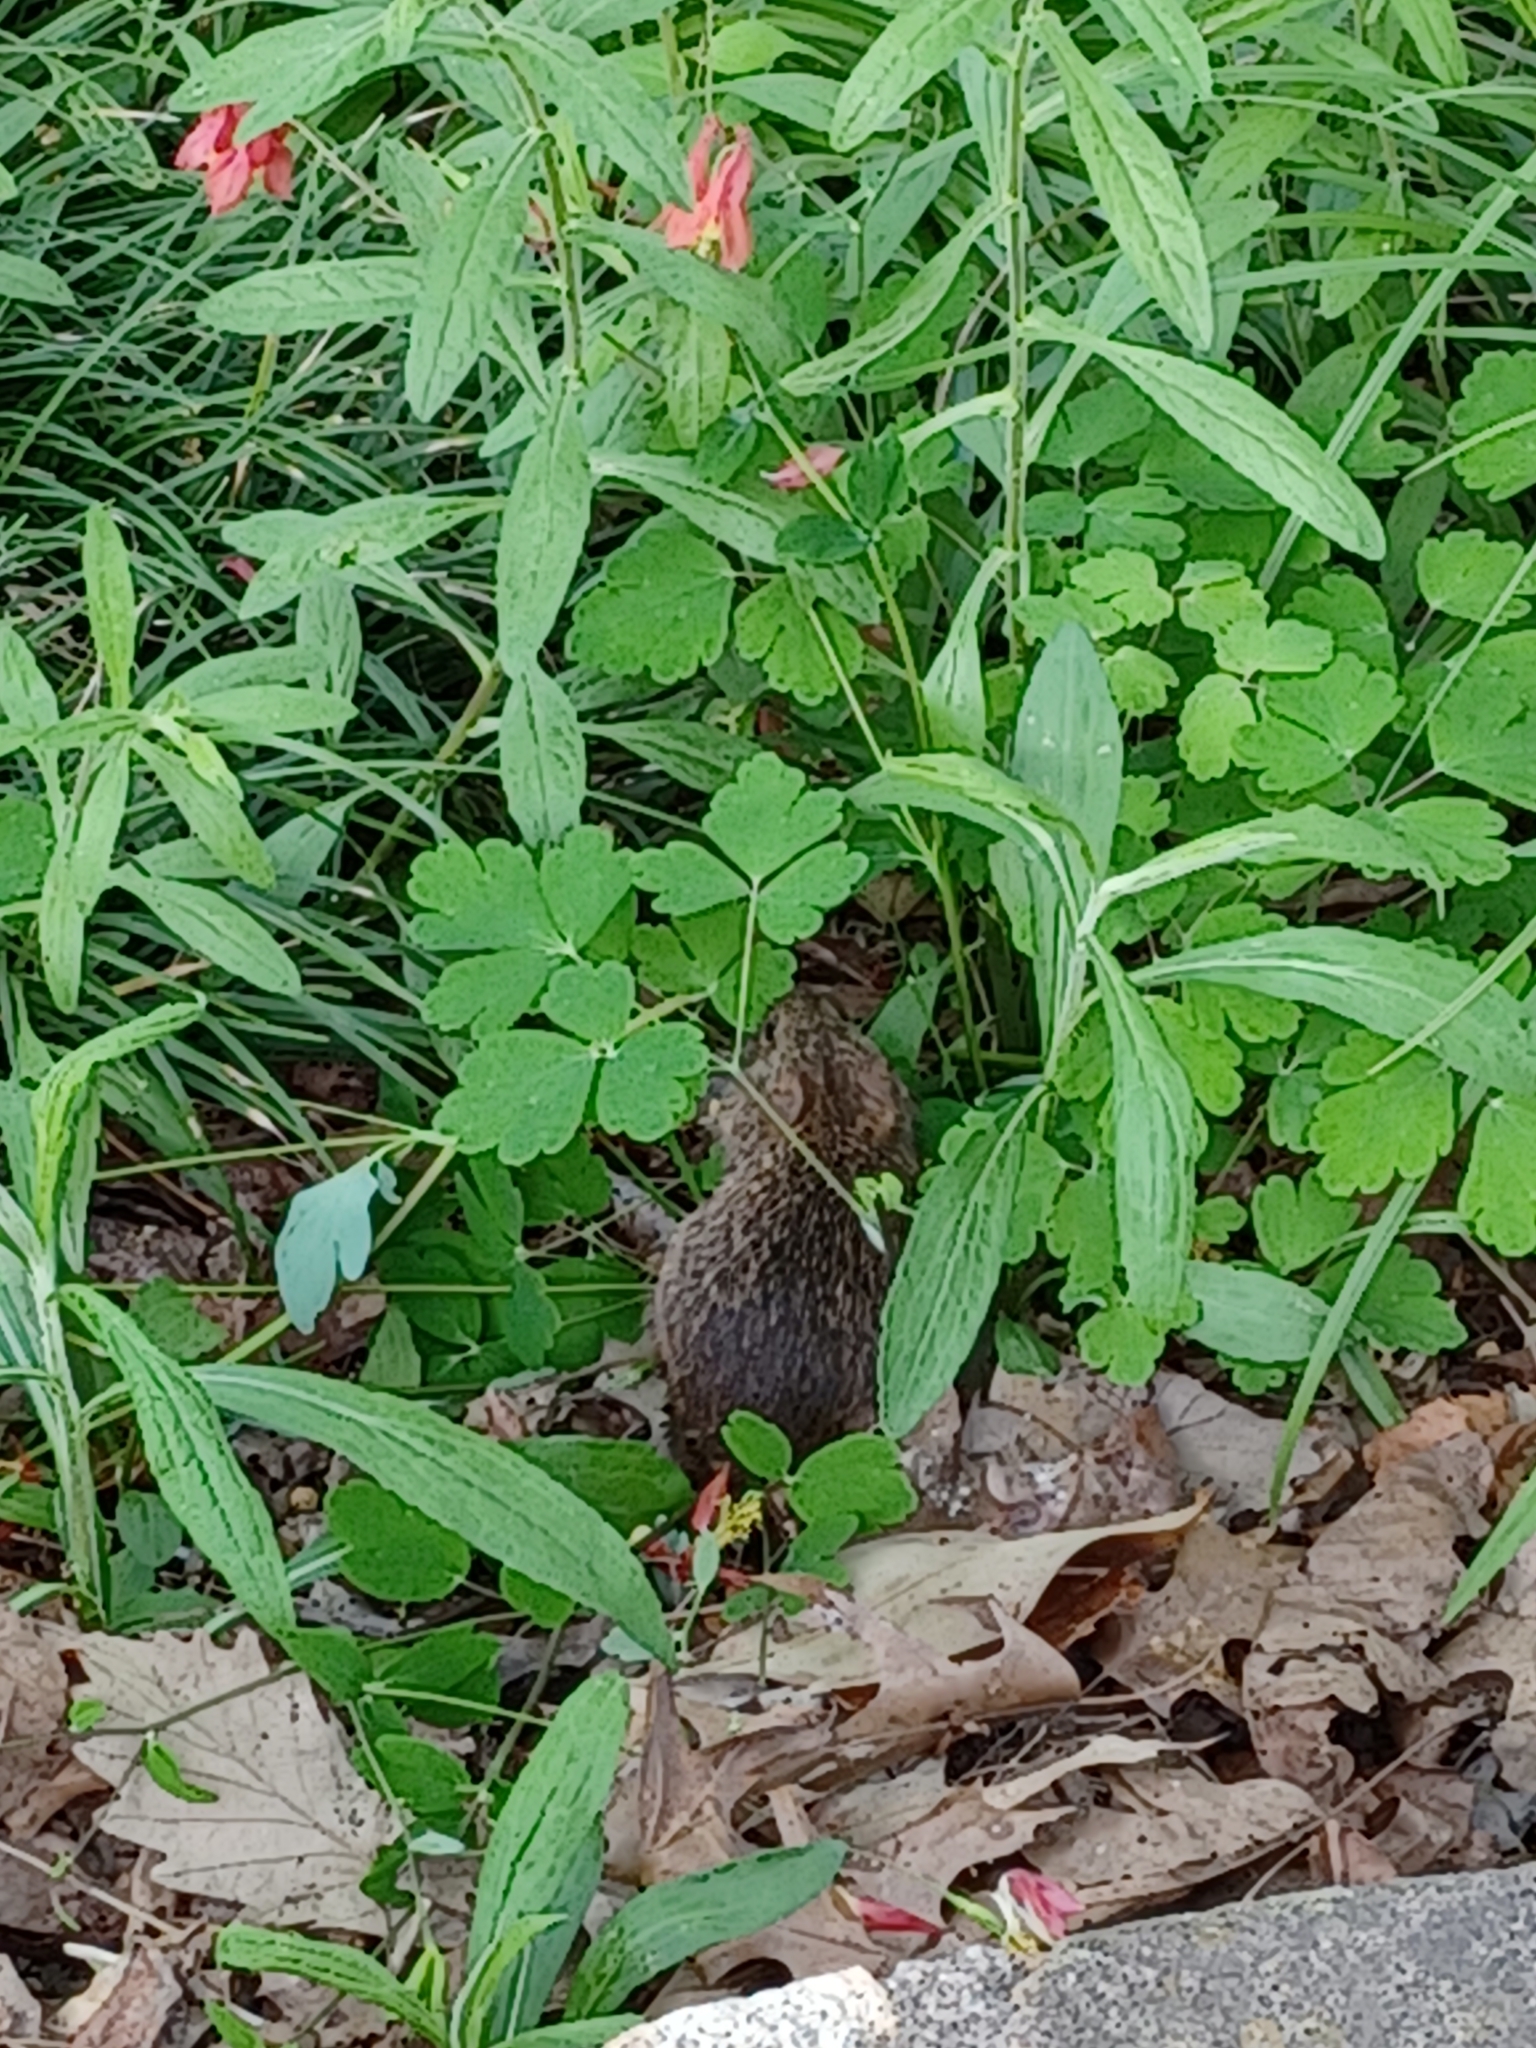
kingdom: Animalia
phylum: Chordata
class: Mammalia
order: Rodentia
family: Cricetidae
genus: Sigmodon
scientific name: Sigmodon hispidus
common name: Hispid cotton rat
